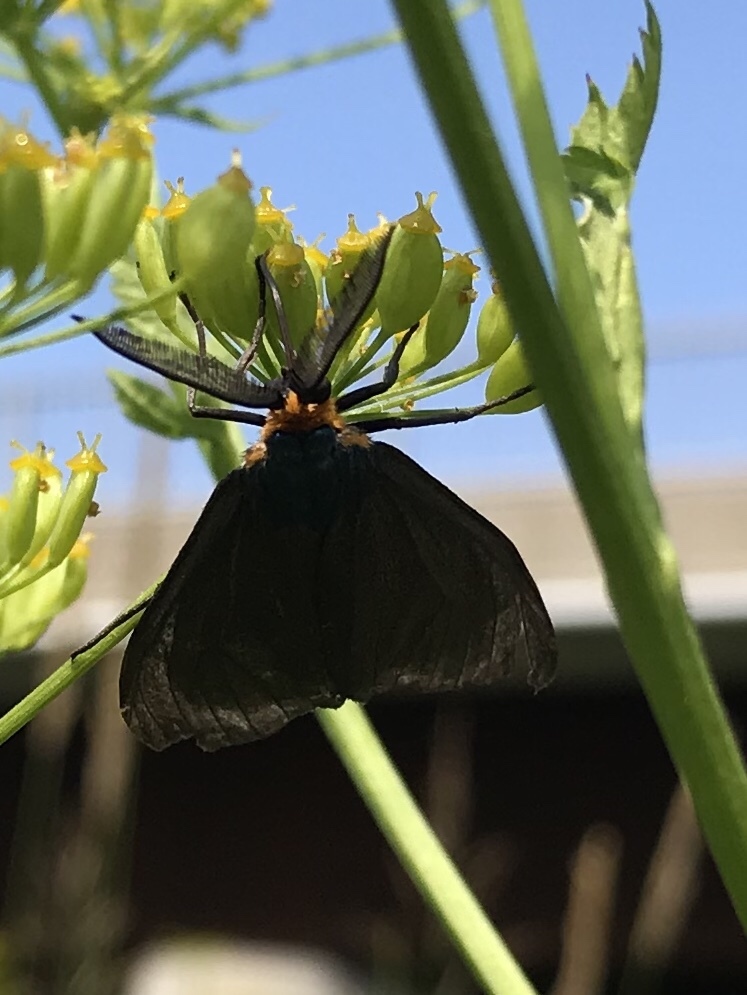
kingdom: Animalia
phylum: Arthropoda
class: Insecta
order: Lepidoptera
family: Erebidae
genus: Ctenucha
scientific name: Ctenucha virginica
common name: Virginia ctenucha moth
